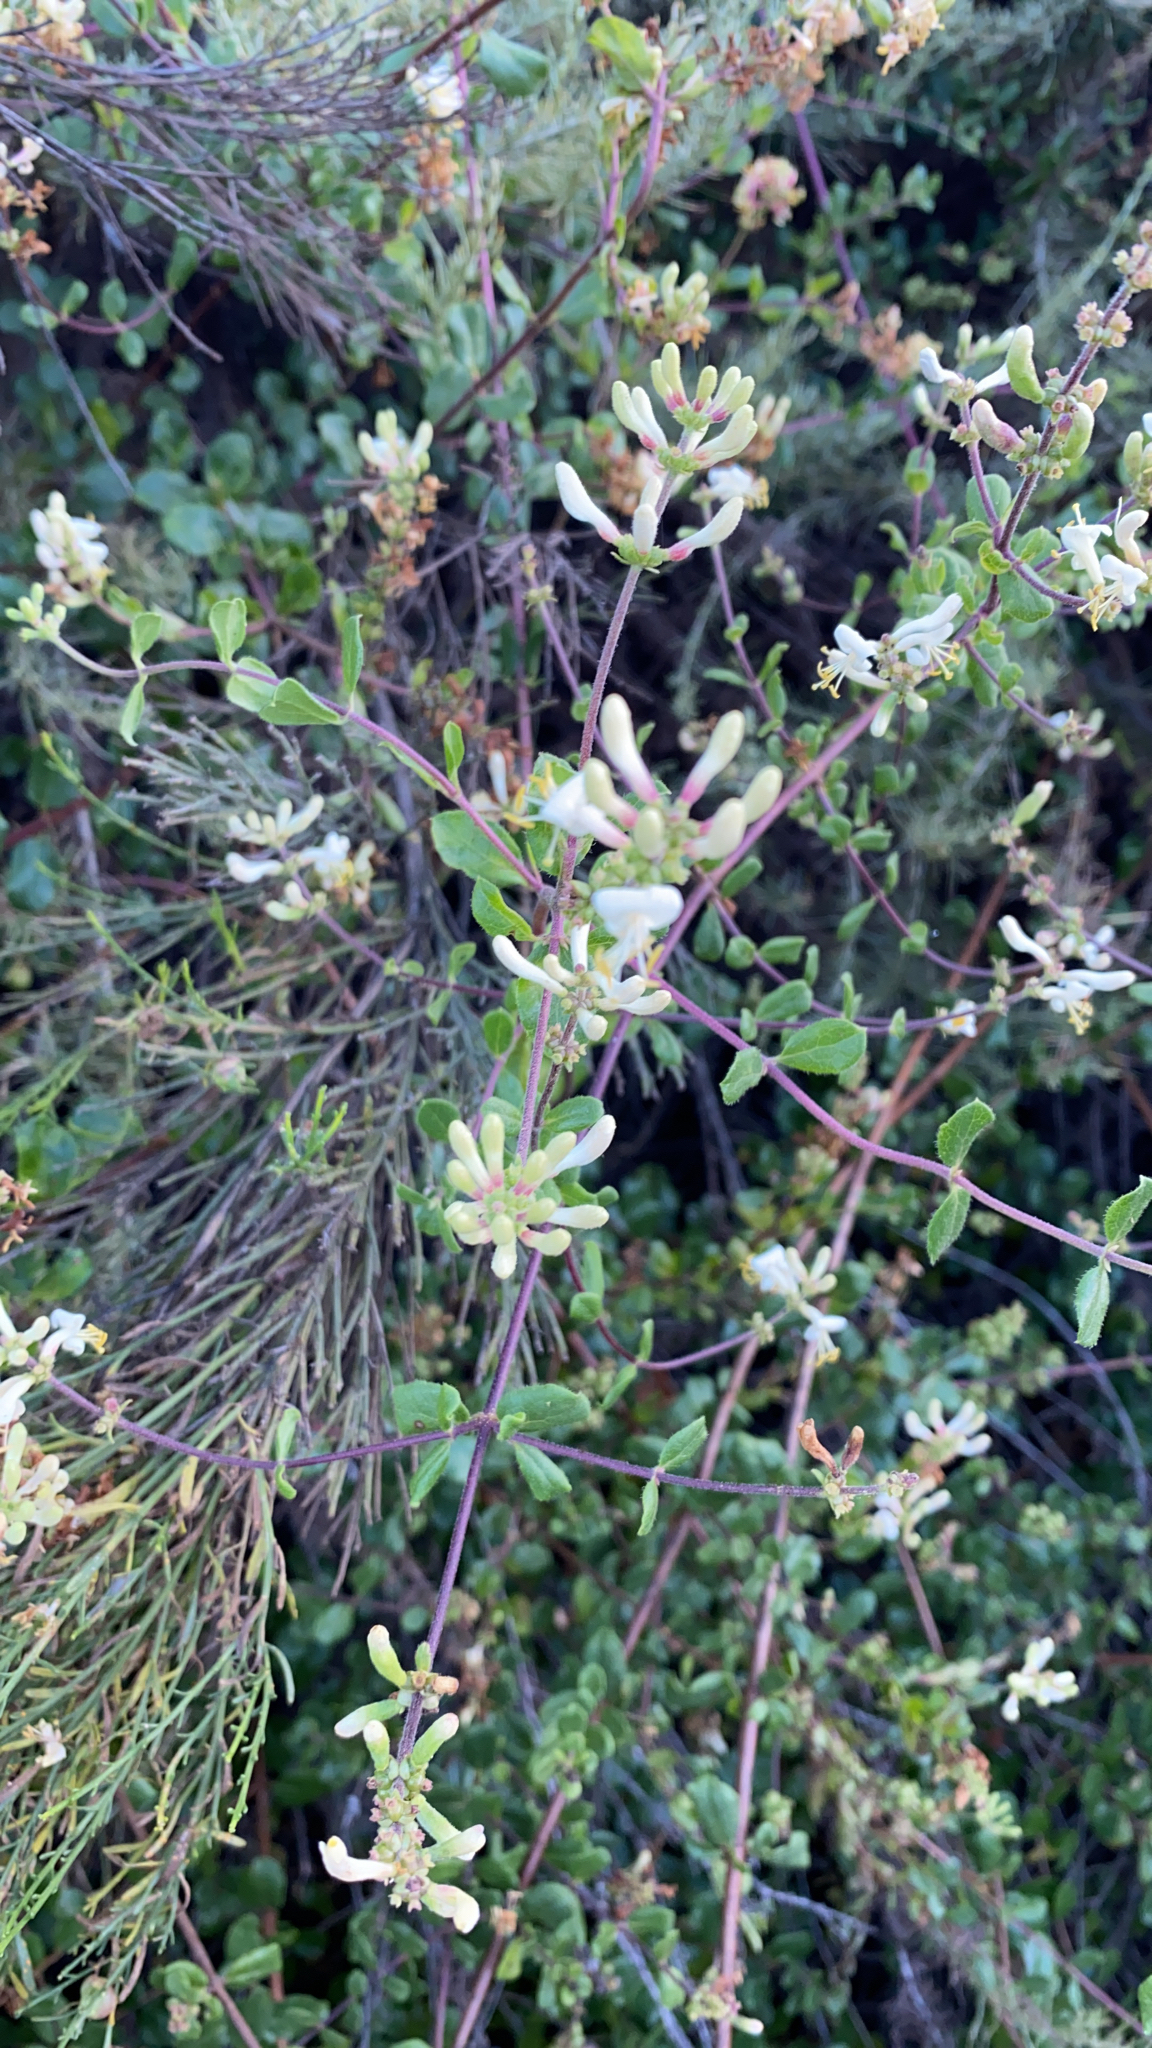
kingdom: Plantae
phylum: Tracheophyta
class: Magnoliopsida
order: Dipsacales
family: Caprifoliaceae
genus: Lonicera
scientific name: Lonicera subspicata
